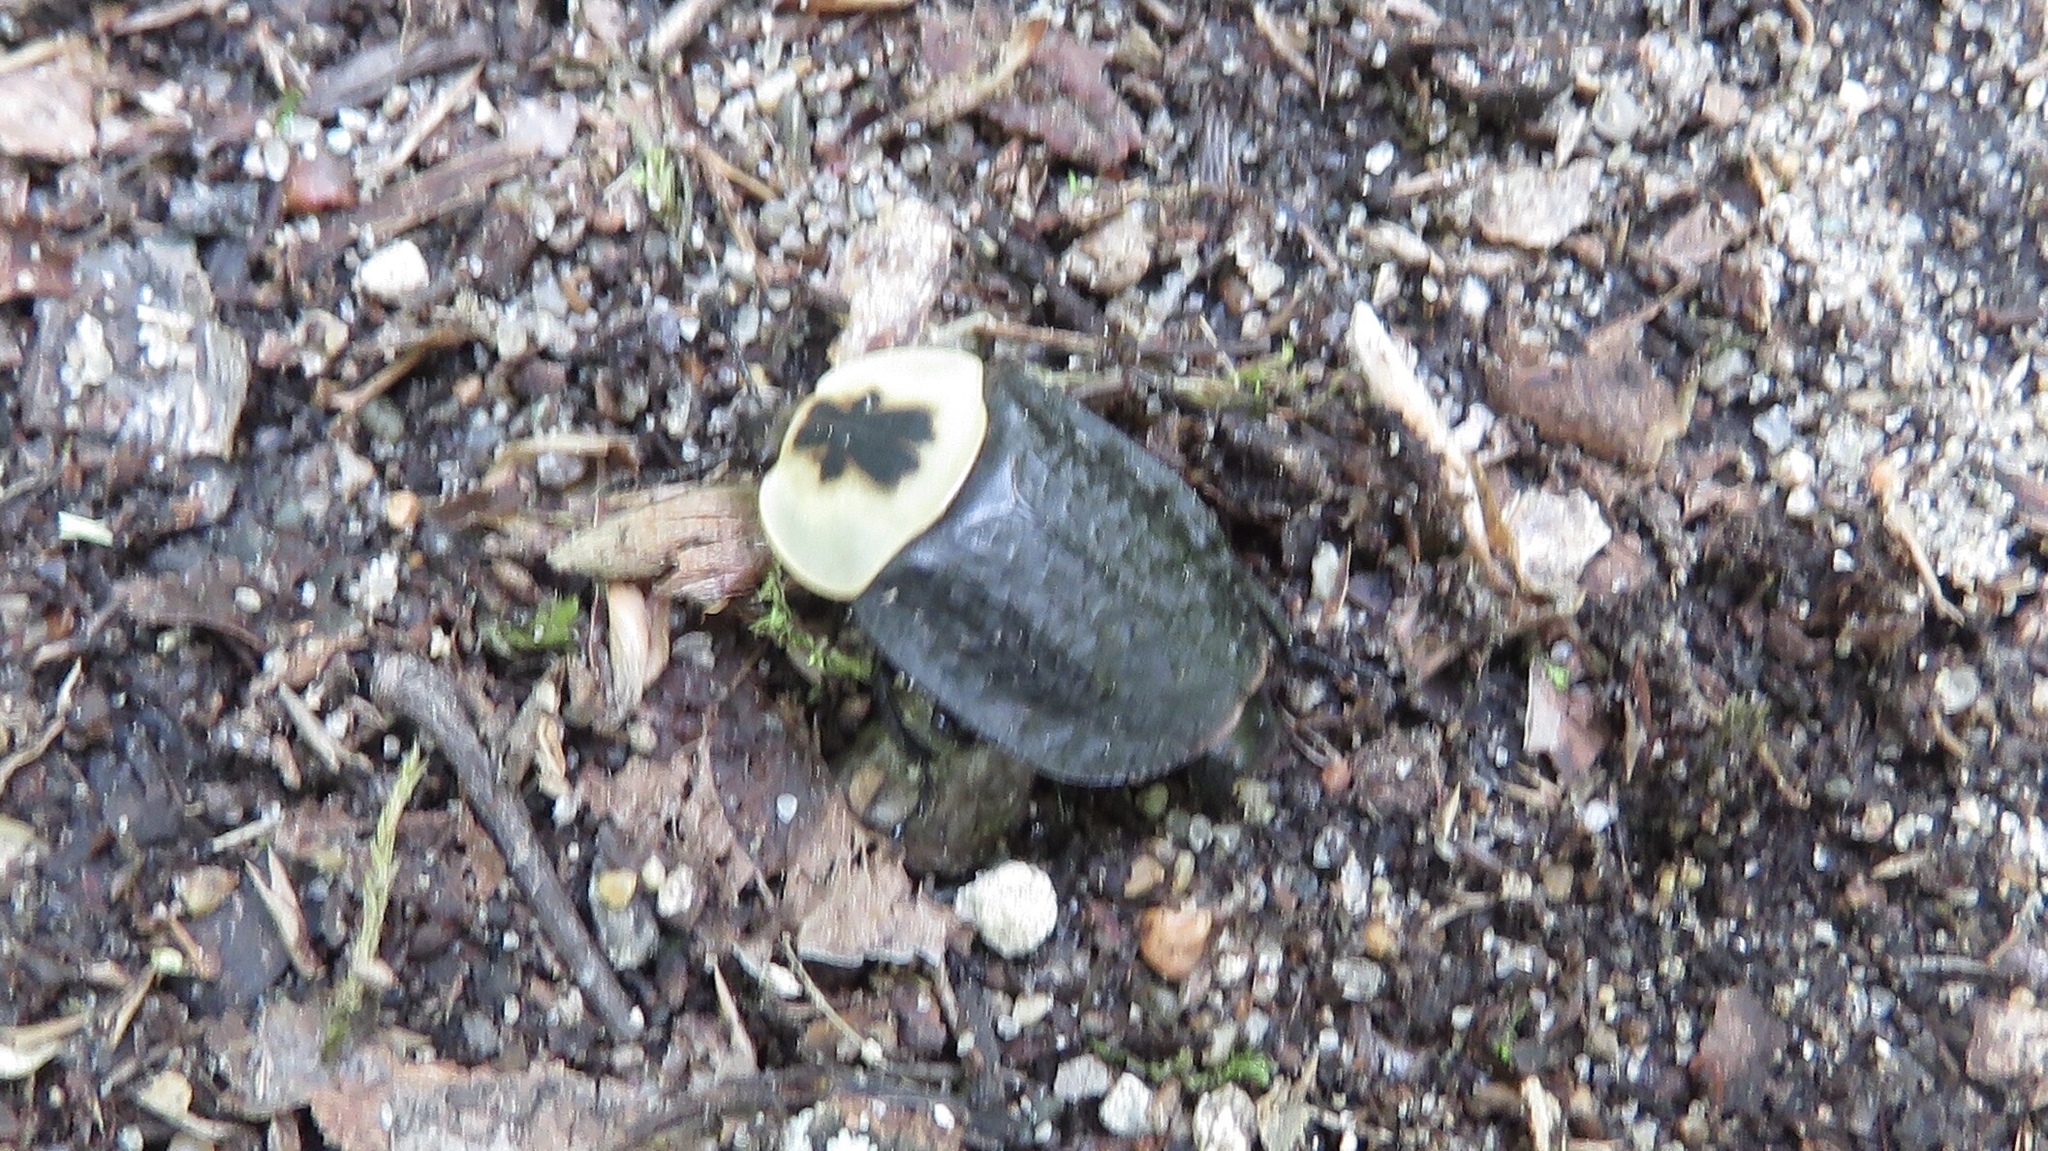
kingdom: Animalia
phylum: Arthropoda
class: Insecta
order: Coleoptera
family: Staphylinidae
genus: Necrophila
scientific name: Necrophila americana
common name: American carrion beetle
